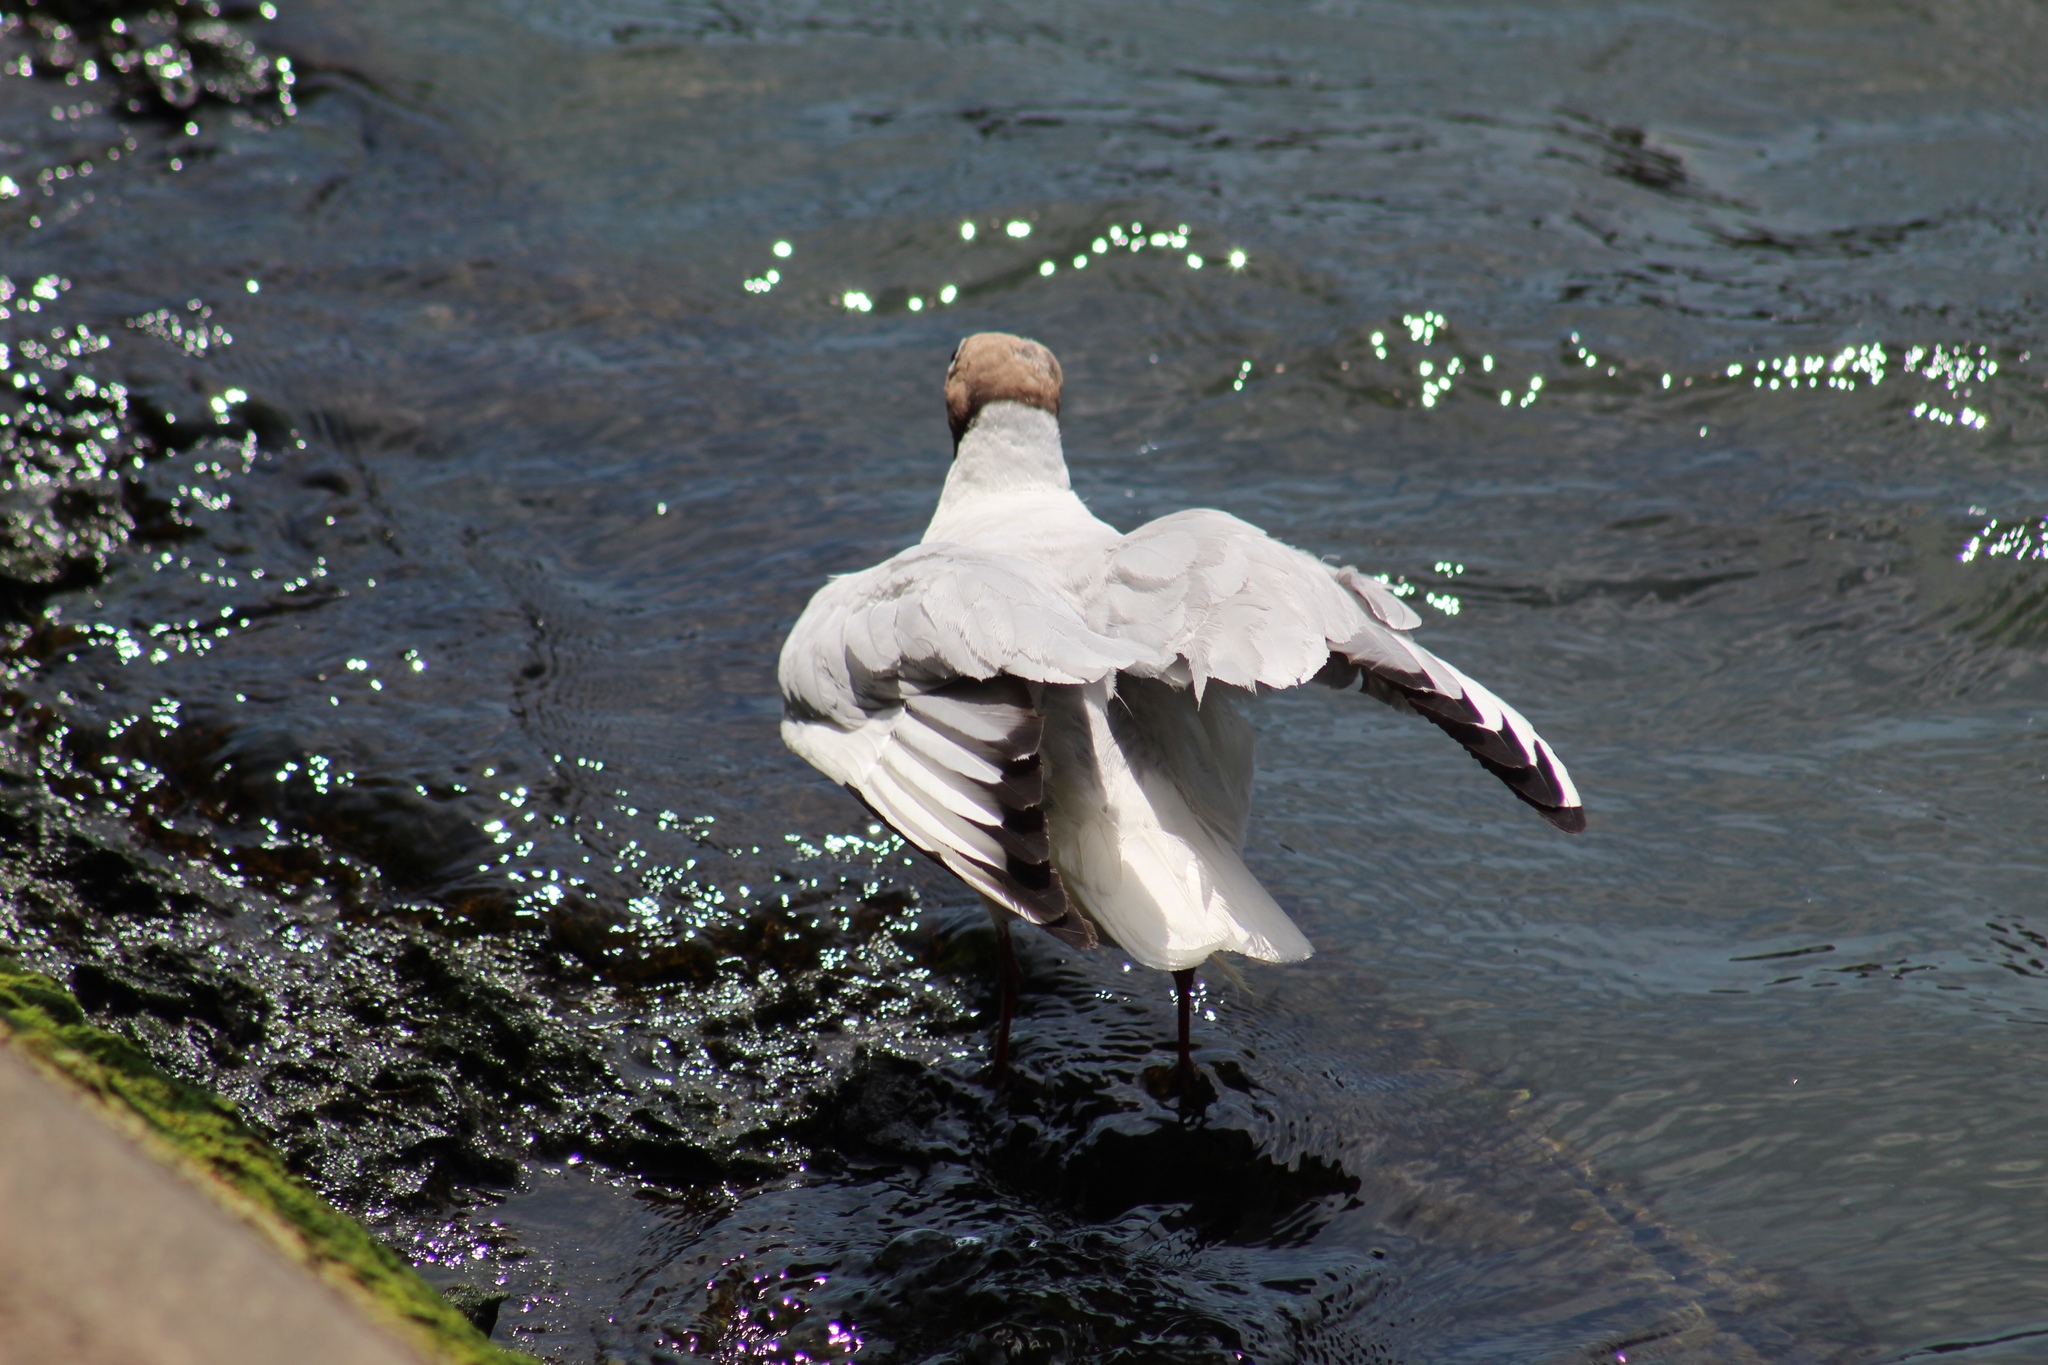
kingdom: Animalia
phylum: Chordata
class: Aves
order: Charadriiformes
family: Laridae
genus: Chroicocephalus
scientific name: Chroicocephalus ridibundus
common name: Black-headed gull
